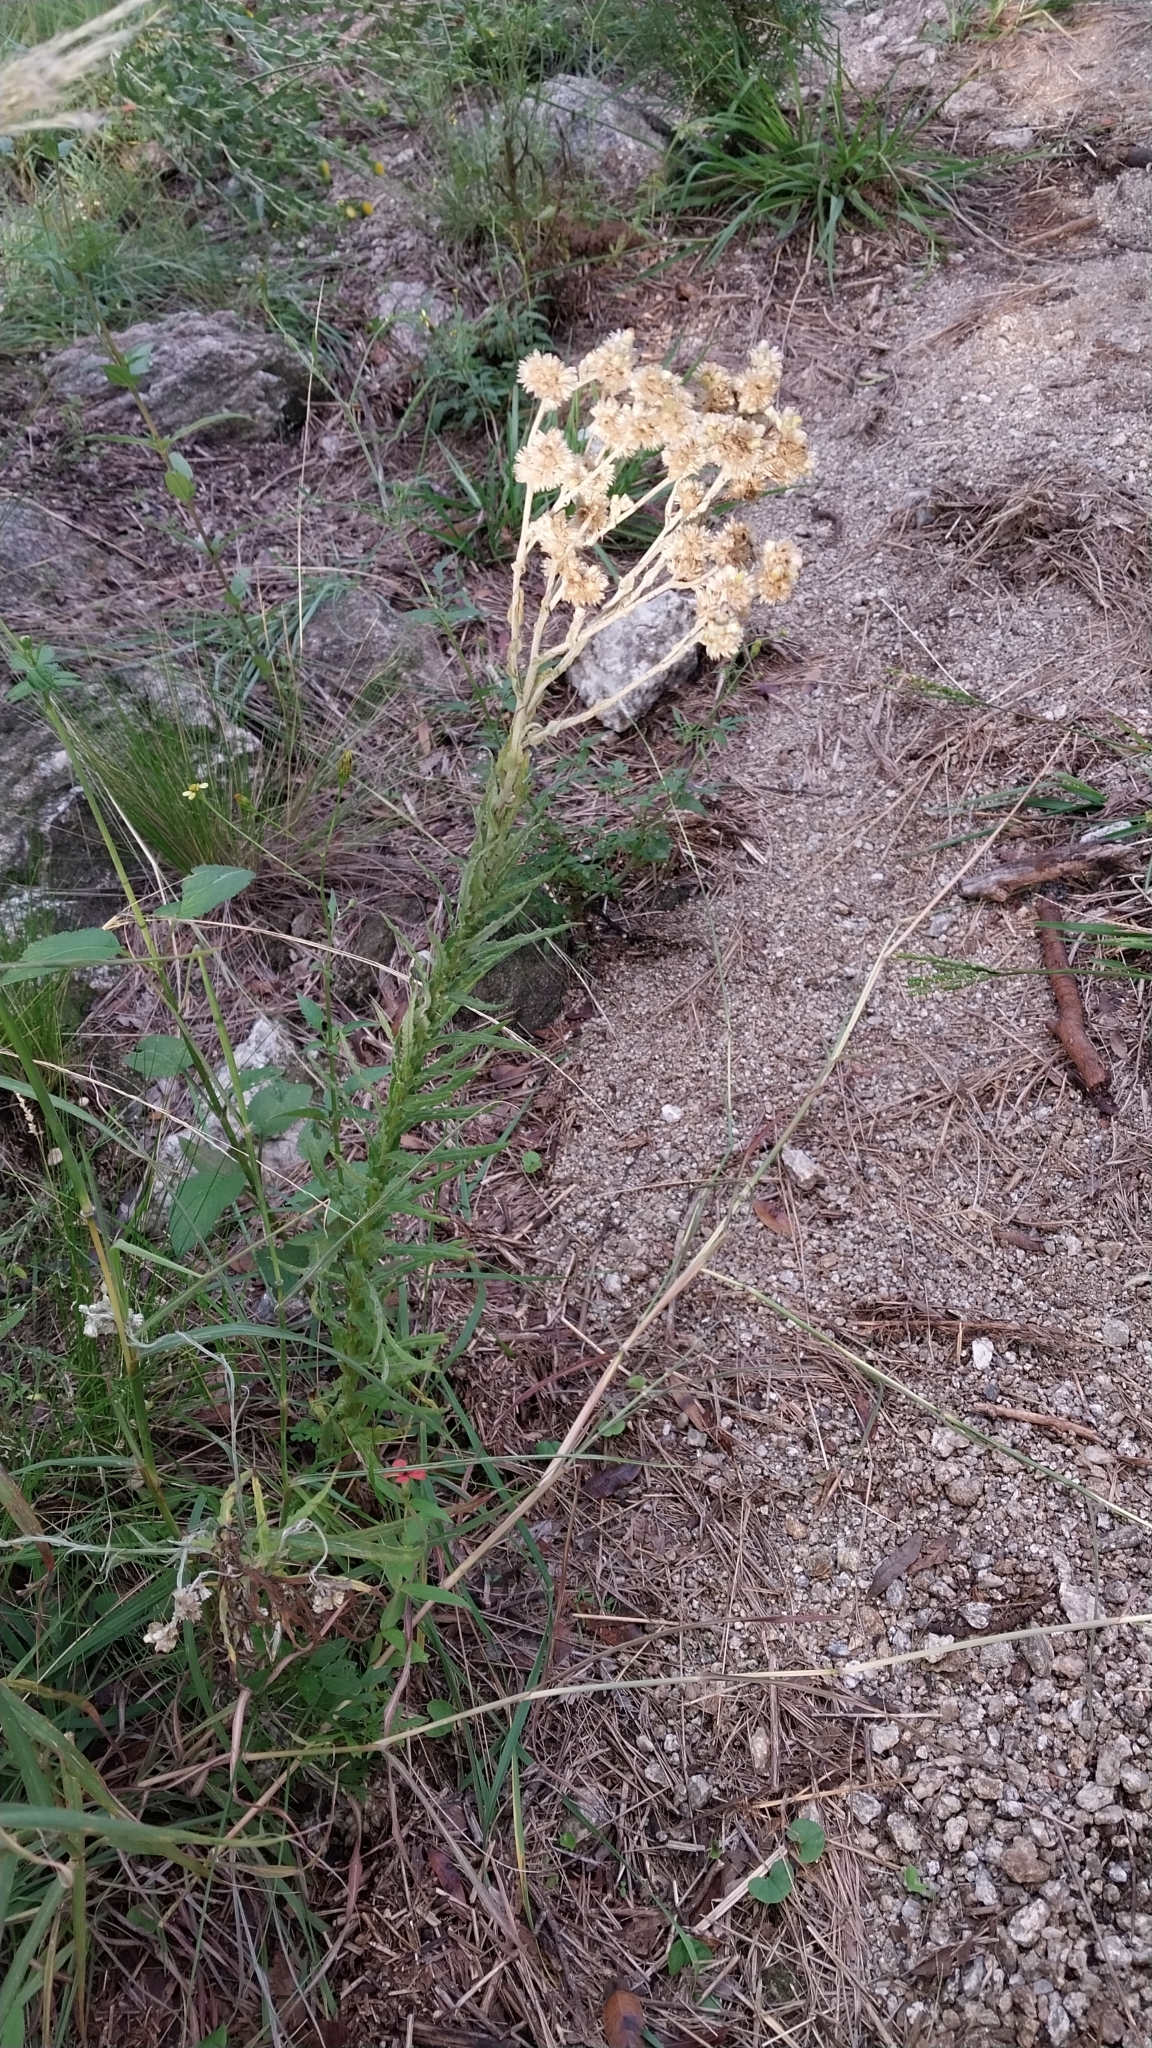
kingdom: Plantae
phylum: Tracheophyta
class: Magnoliopsida
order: Asterales
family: Asteraceae
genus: Pseudognaphalium
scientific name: Pseudognaphalium gaudichaudianum
